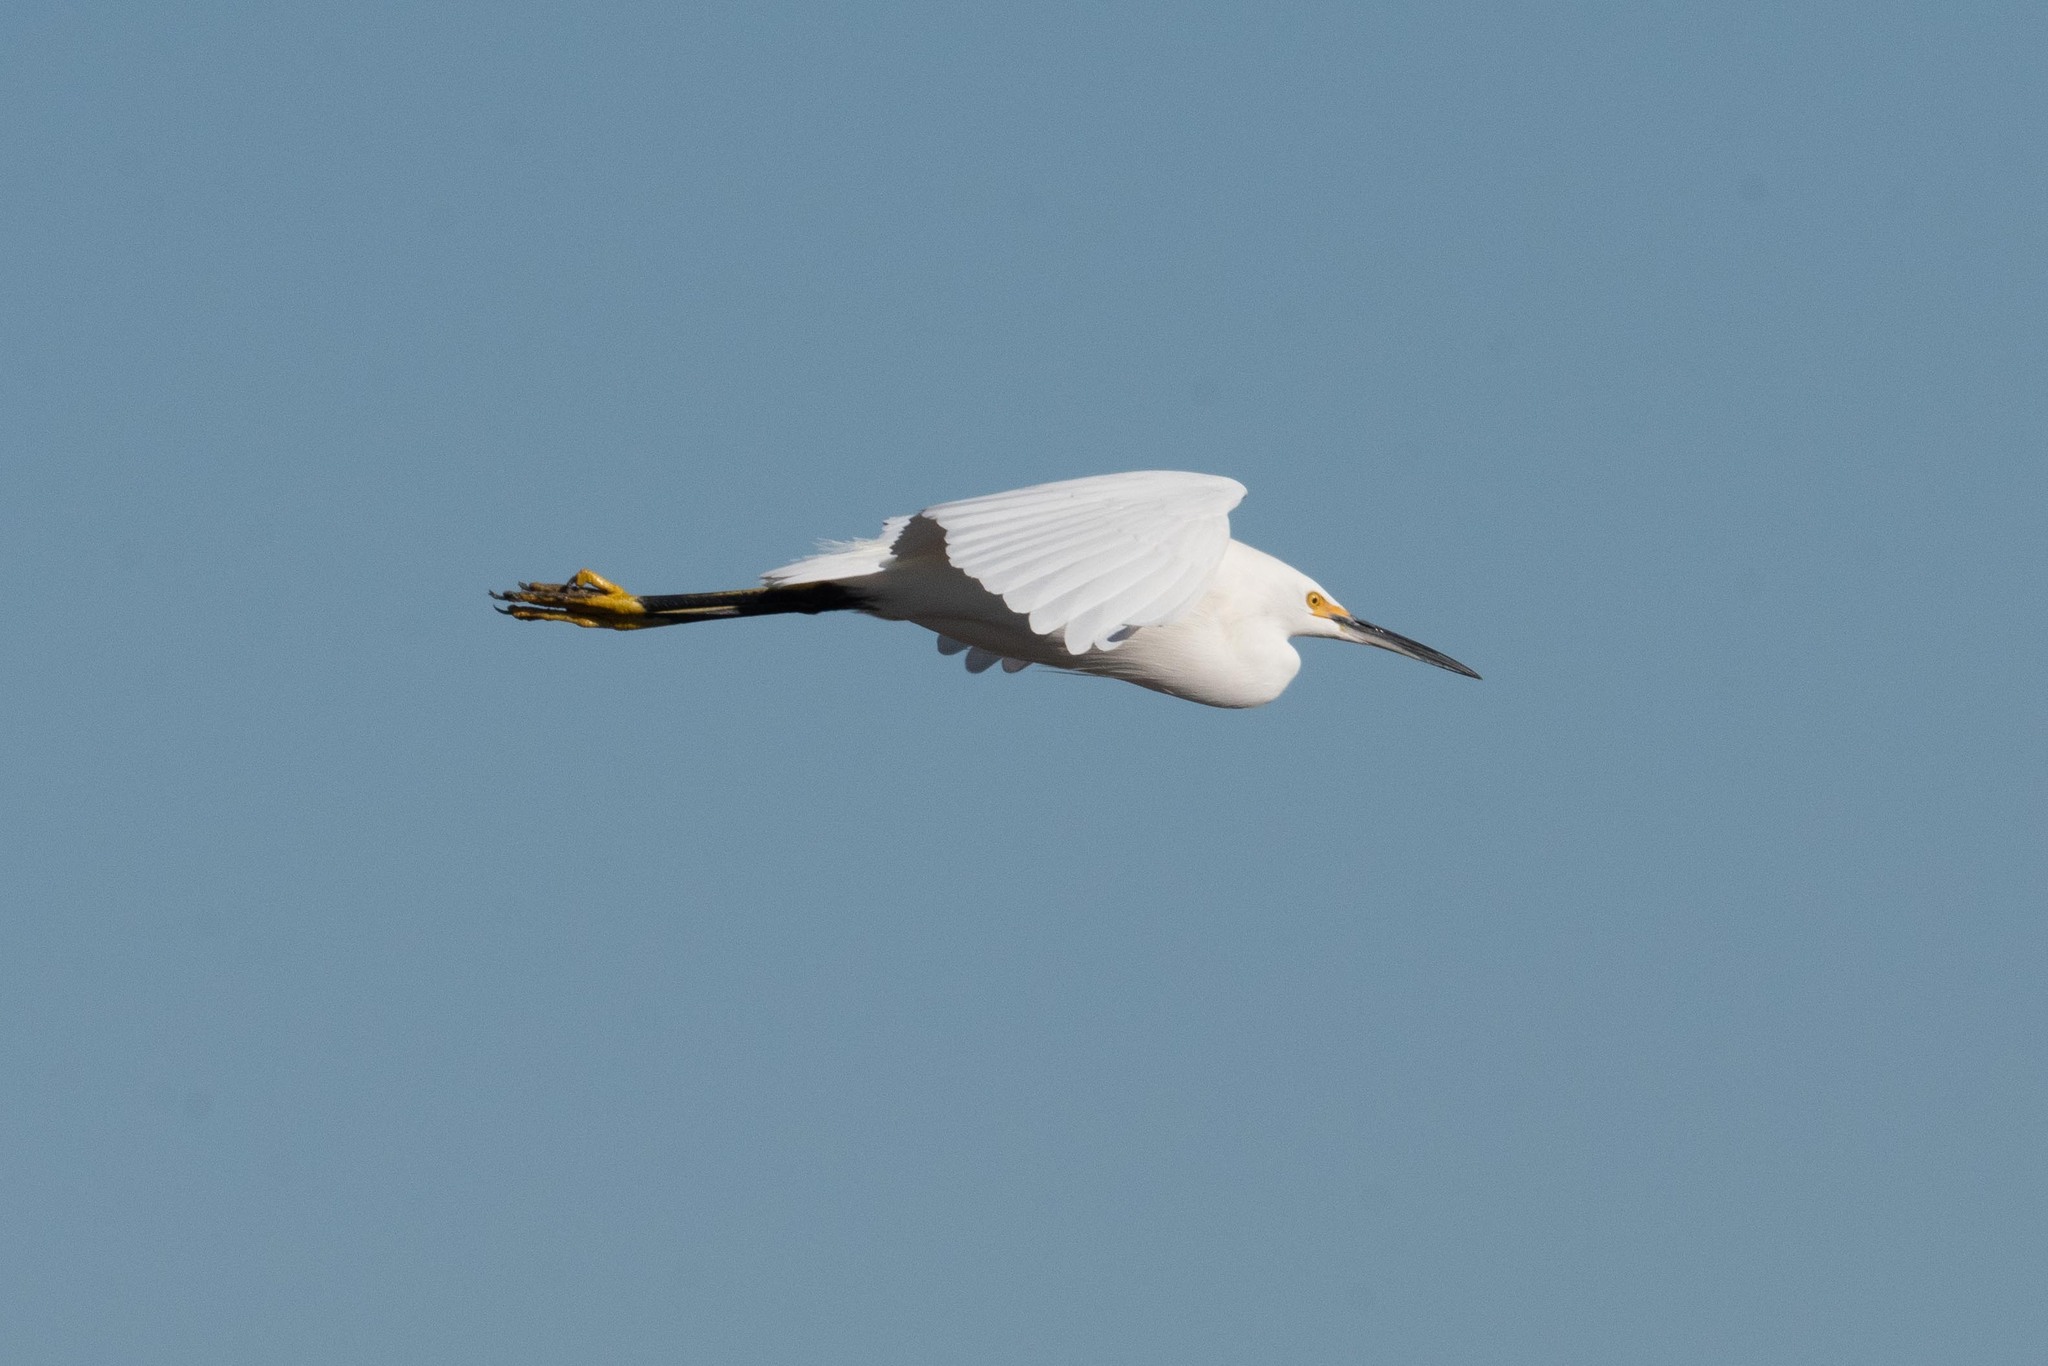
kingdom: Animalia
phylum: Chordata
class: Aves
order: Pelecaniformes
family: Ardeidae
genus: Egretta
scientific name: Egretta thula
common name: Snowy egret
